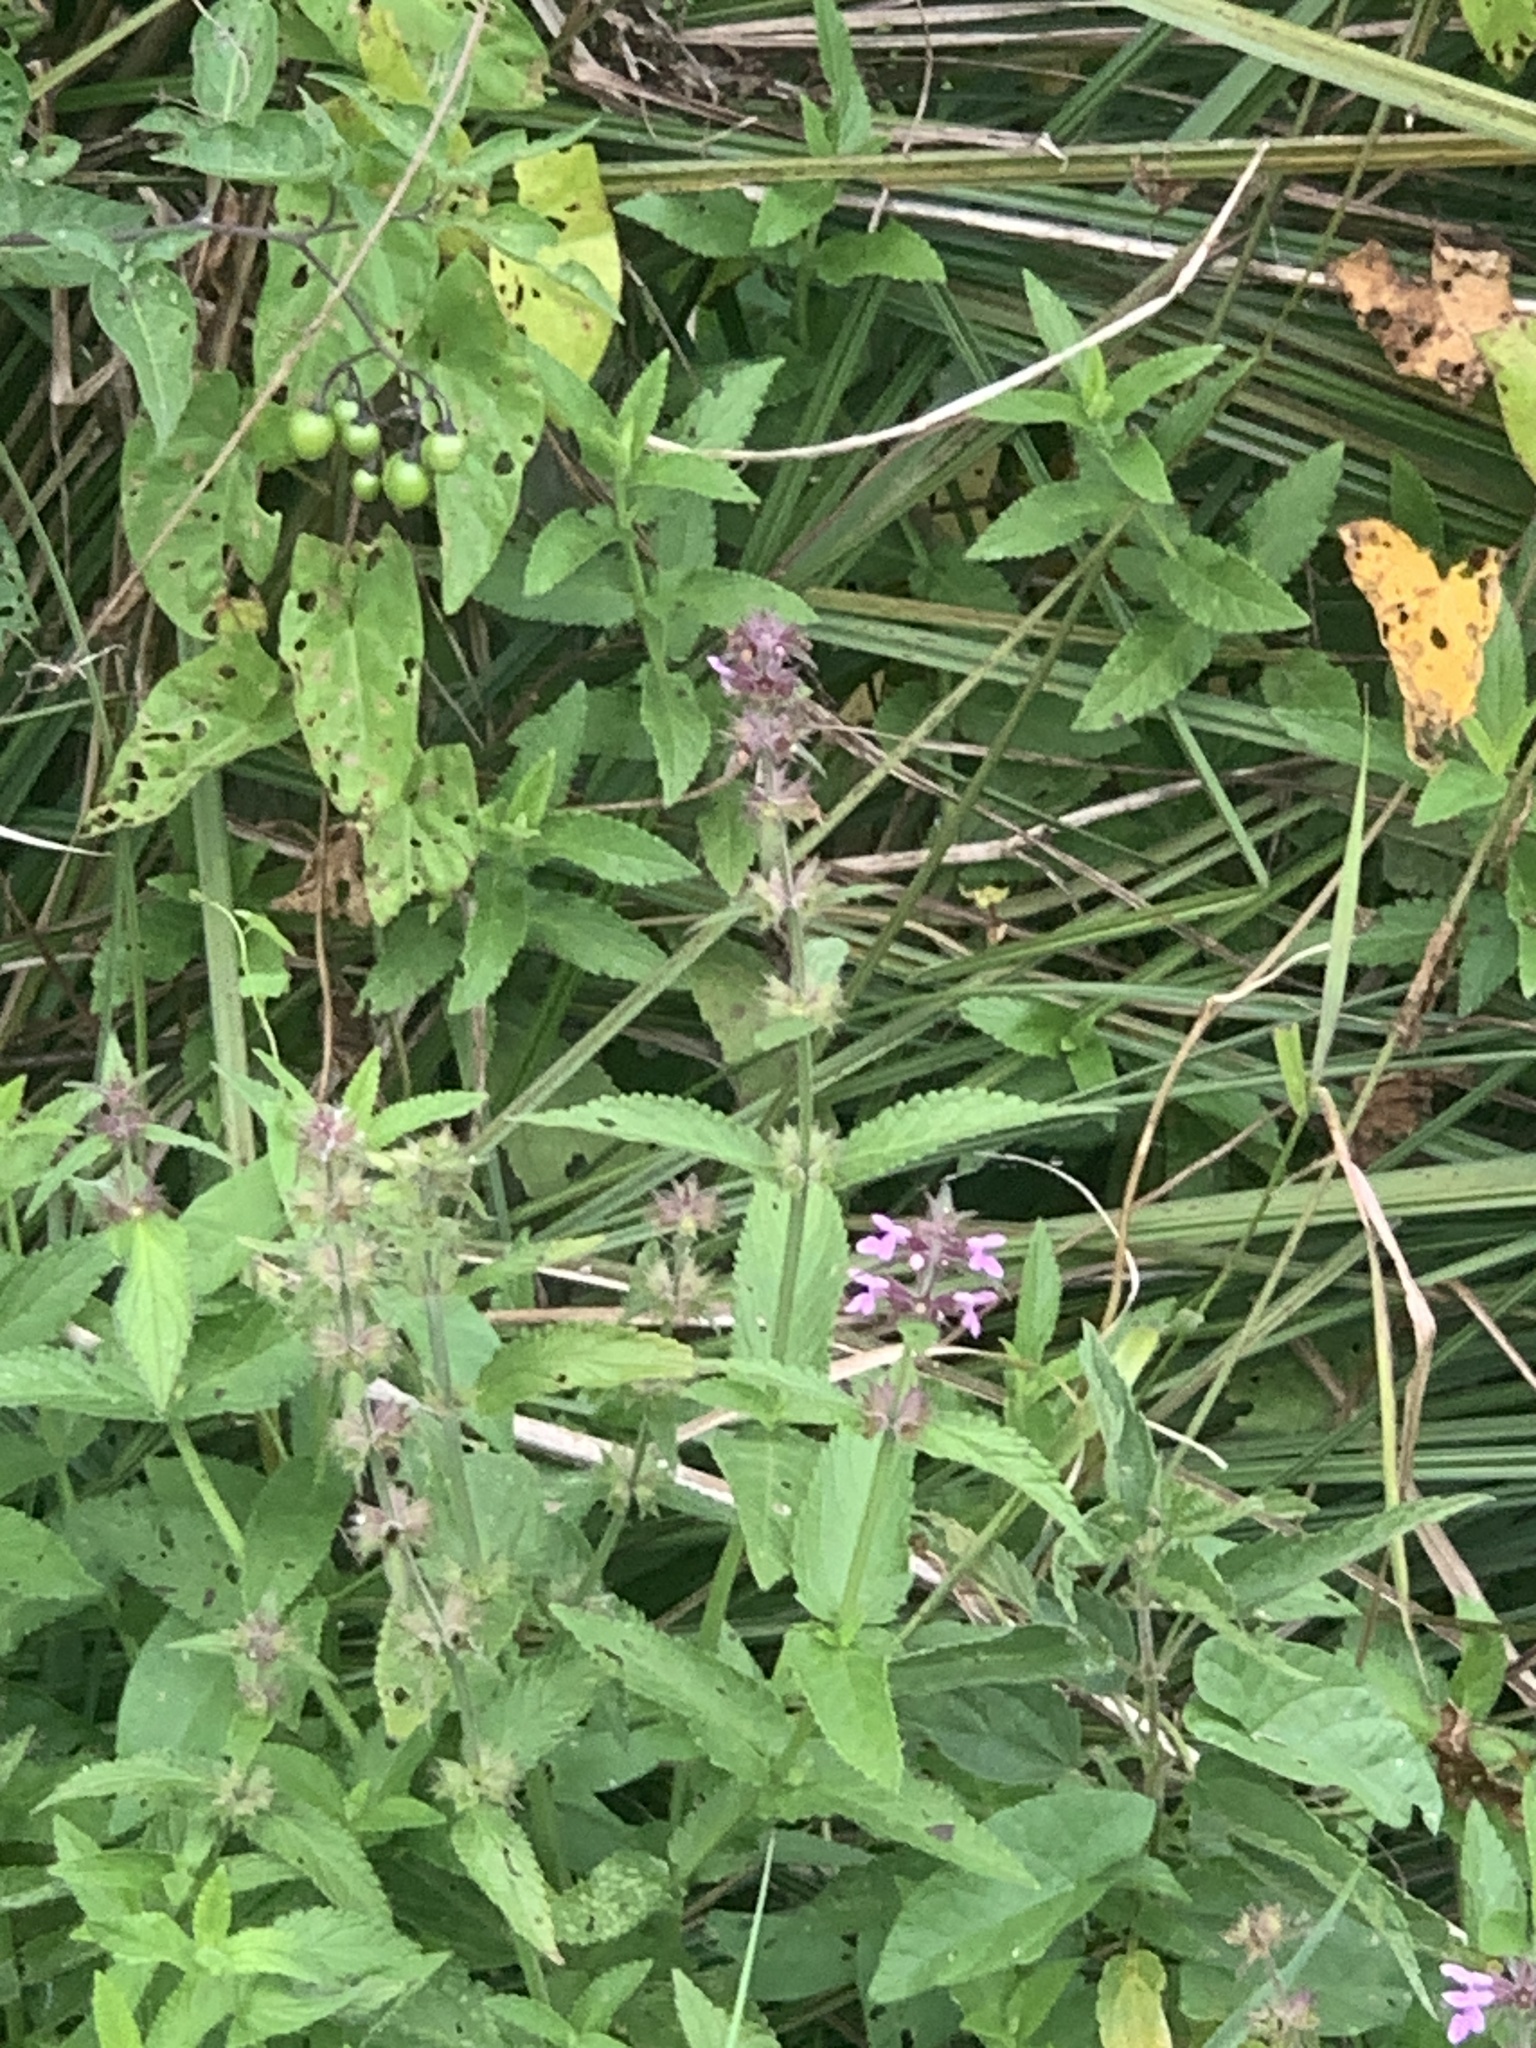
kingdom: Plantae
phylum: Tracheophyta
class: Magnoliopsida
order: Lamiales
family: Lamiaceae
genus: Stachys
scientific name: Stachys palustris
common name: Marsh woundwort
